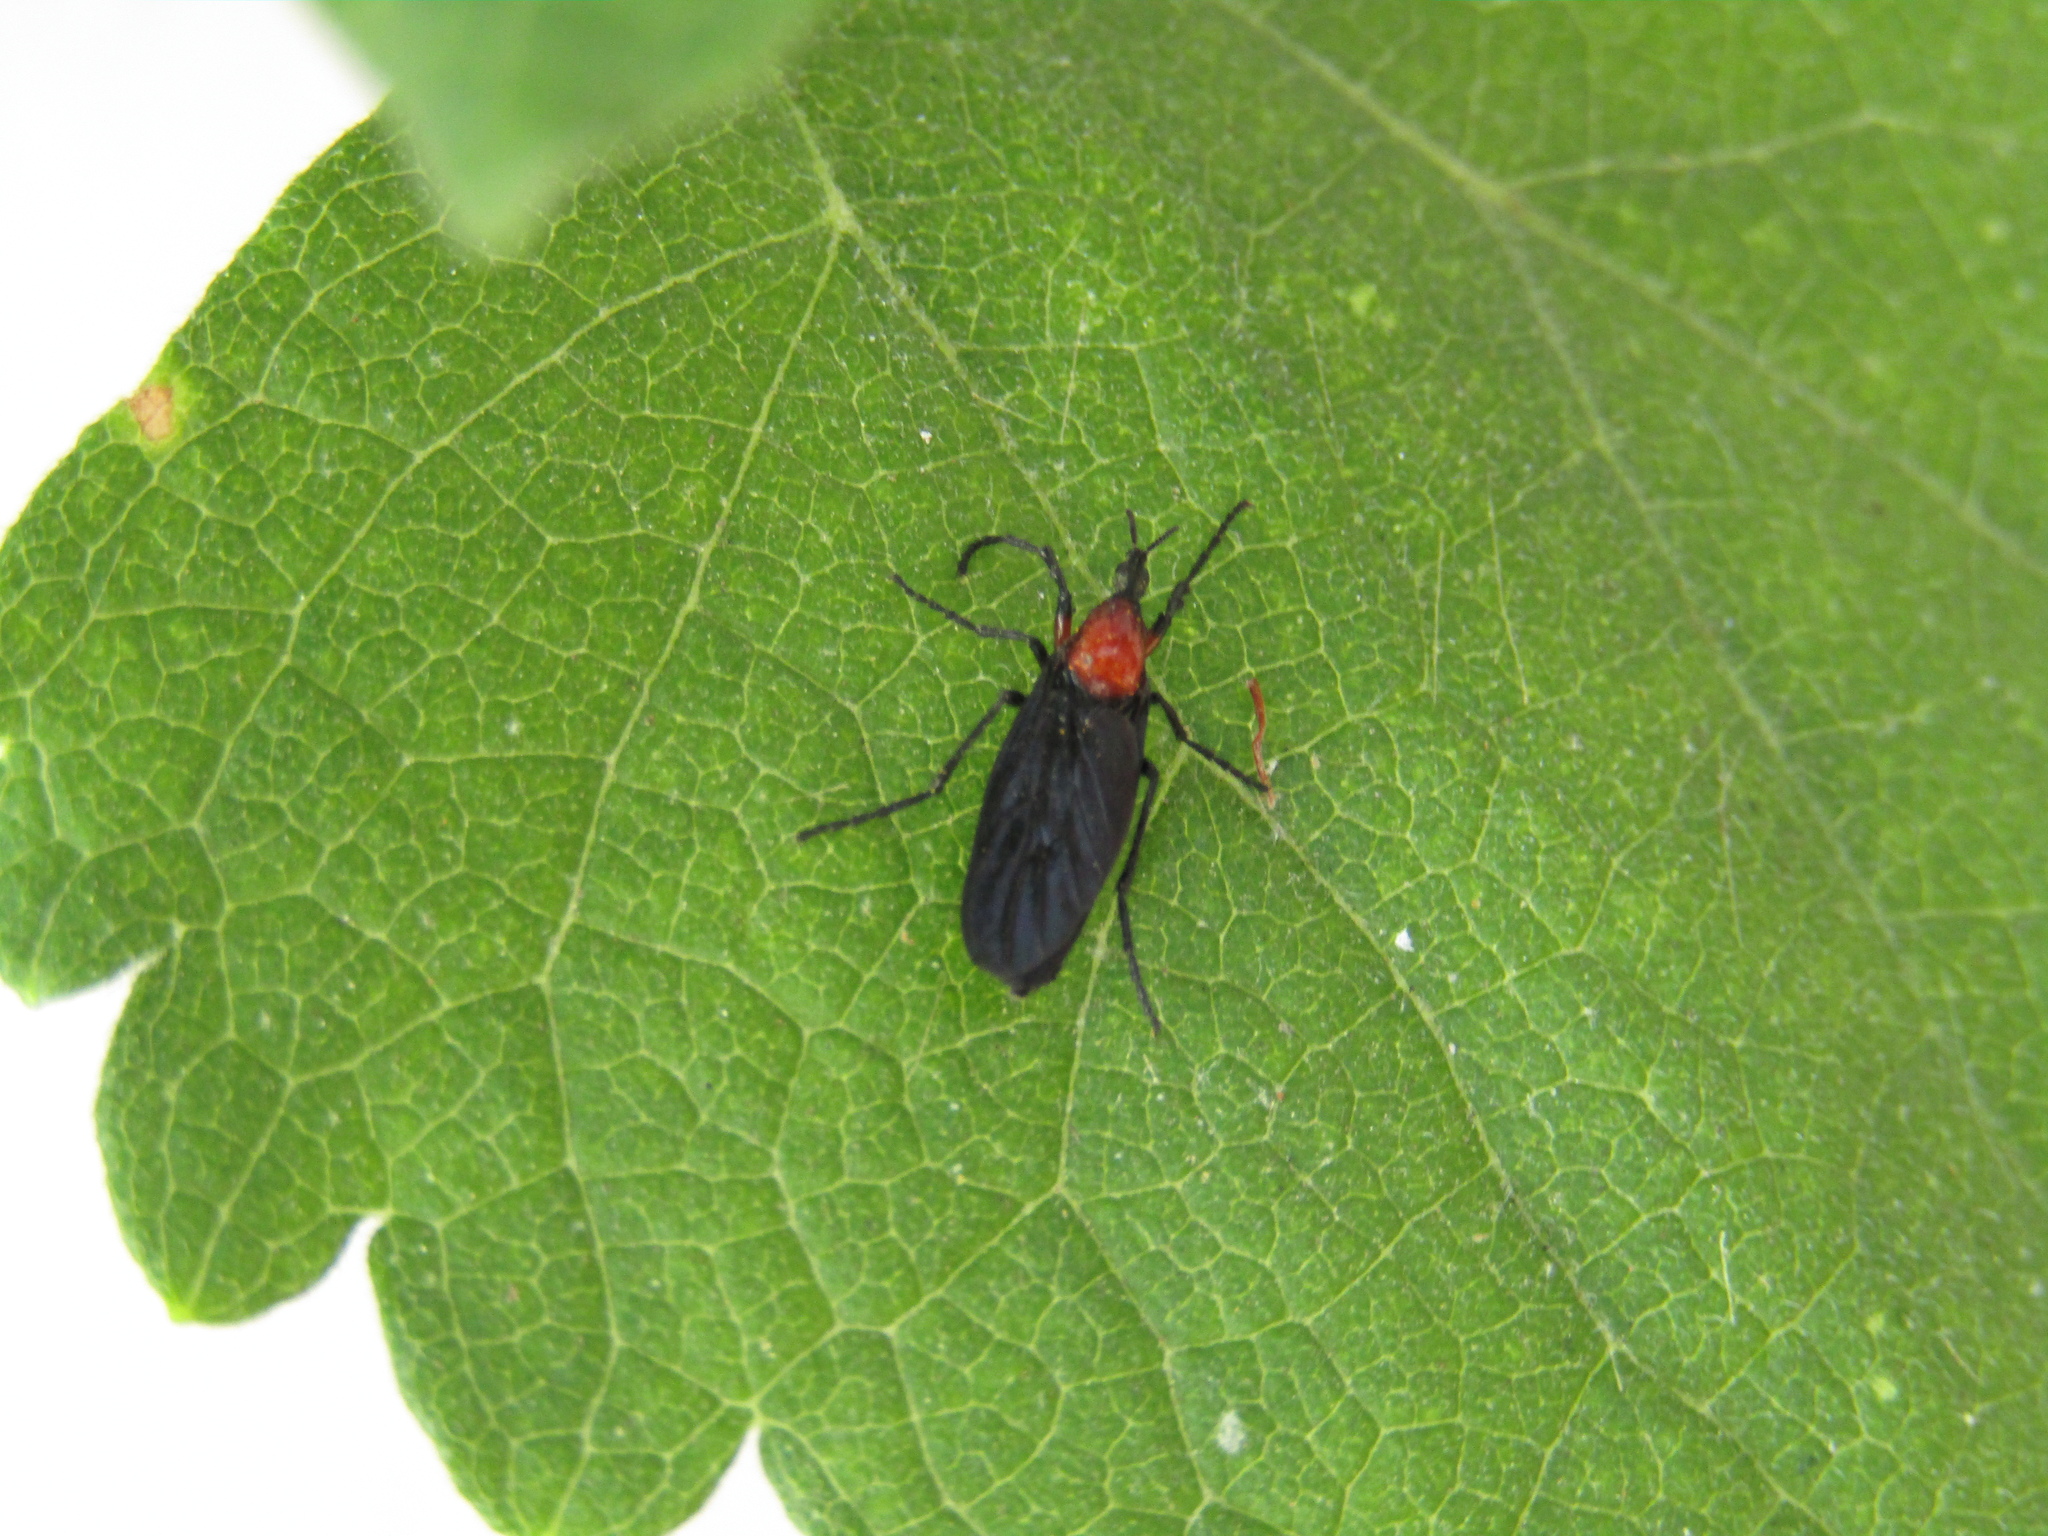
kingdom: Animalia
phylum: Arthropoda
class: Insecta
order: Diptera
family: Bibionidae
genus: Dilophus
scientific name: Dilophus pectoralis
